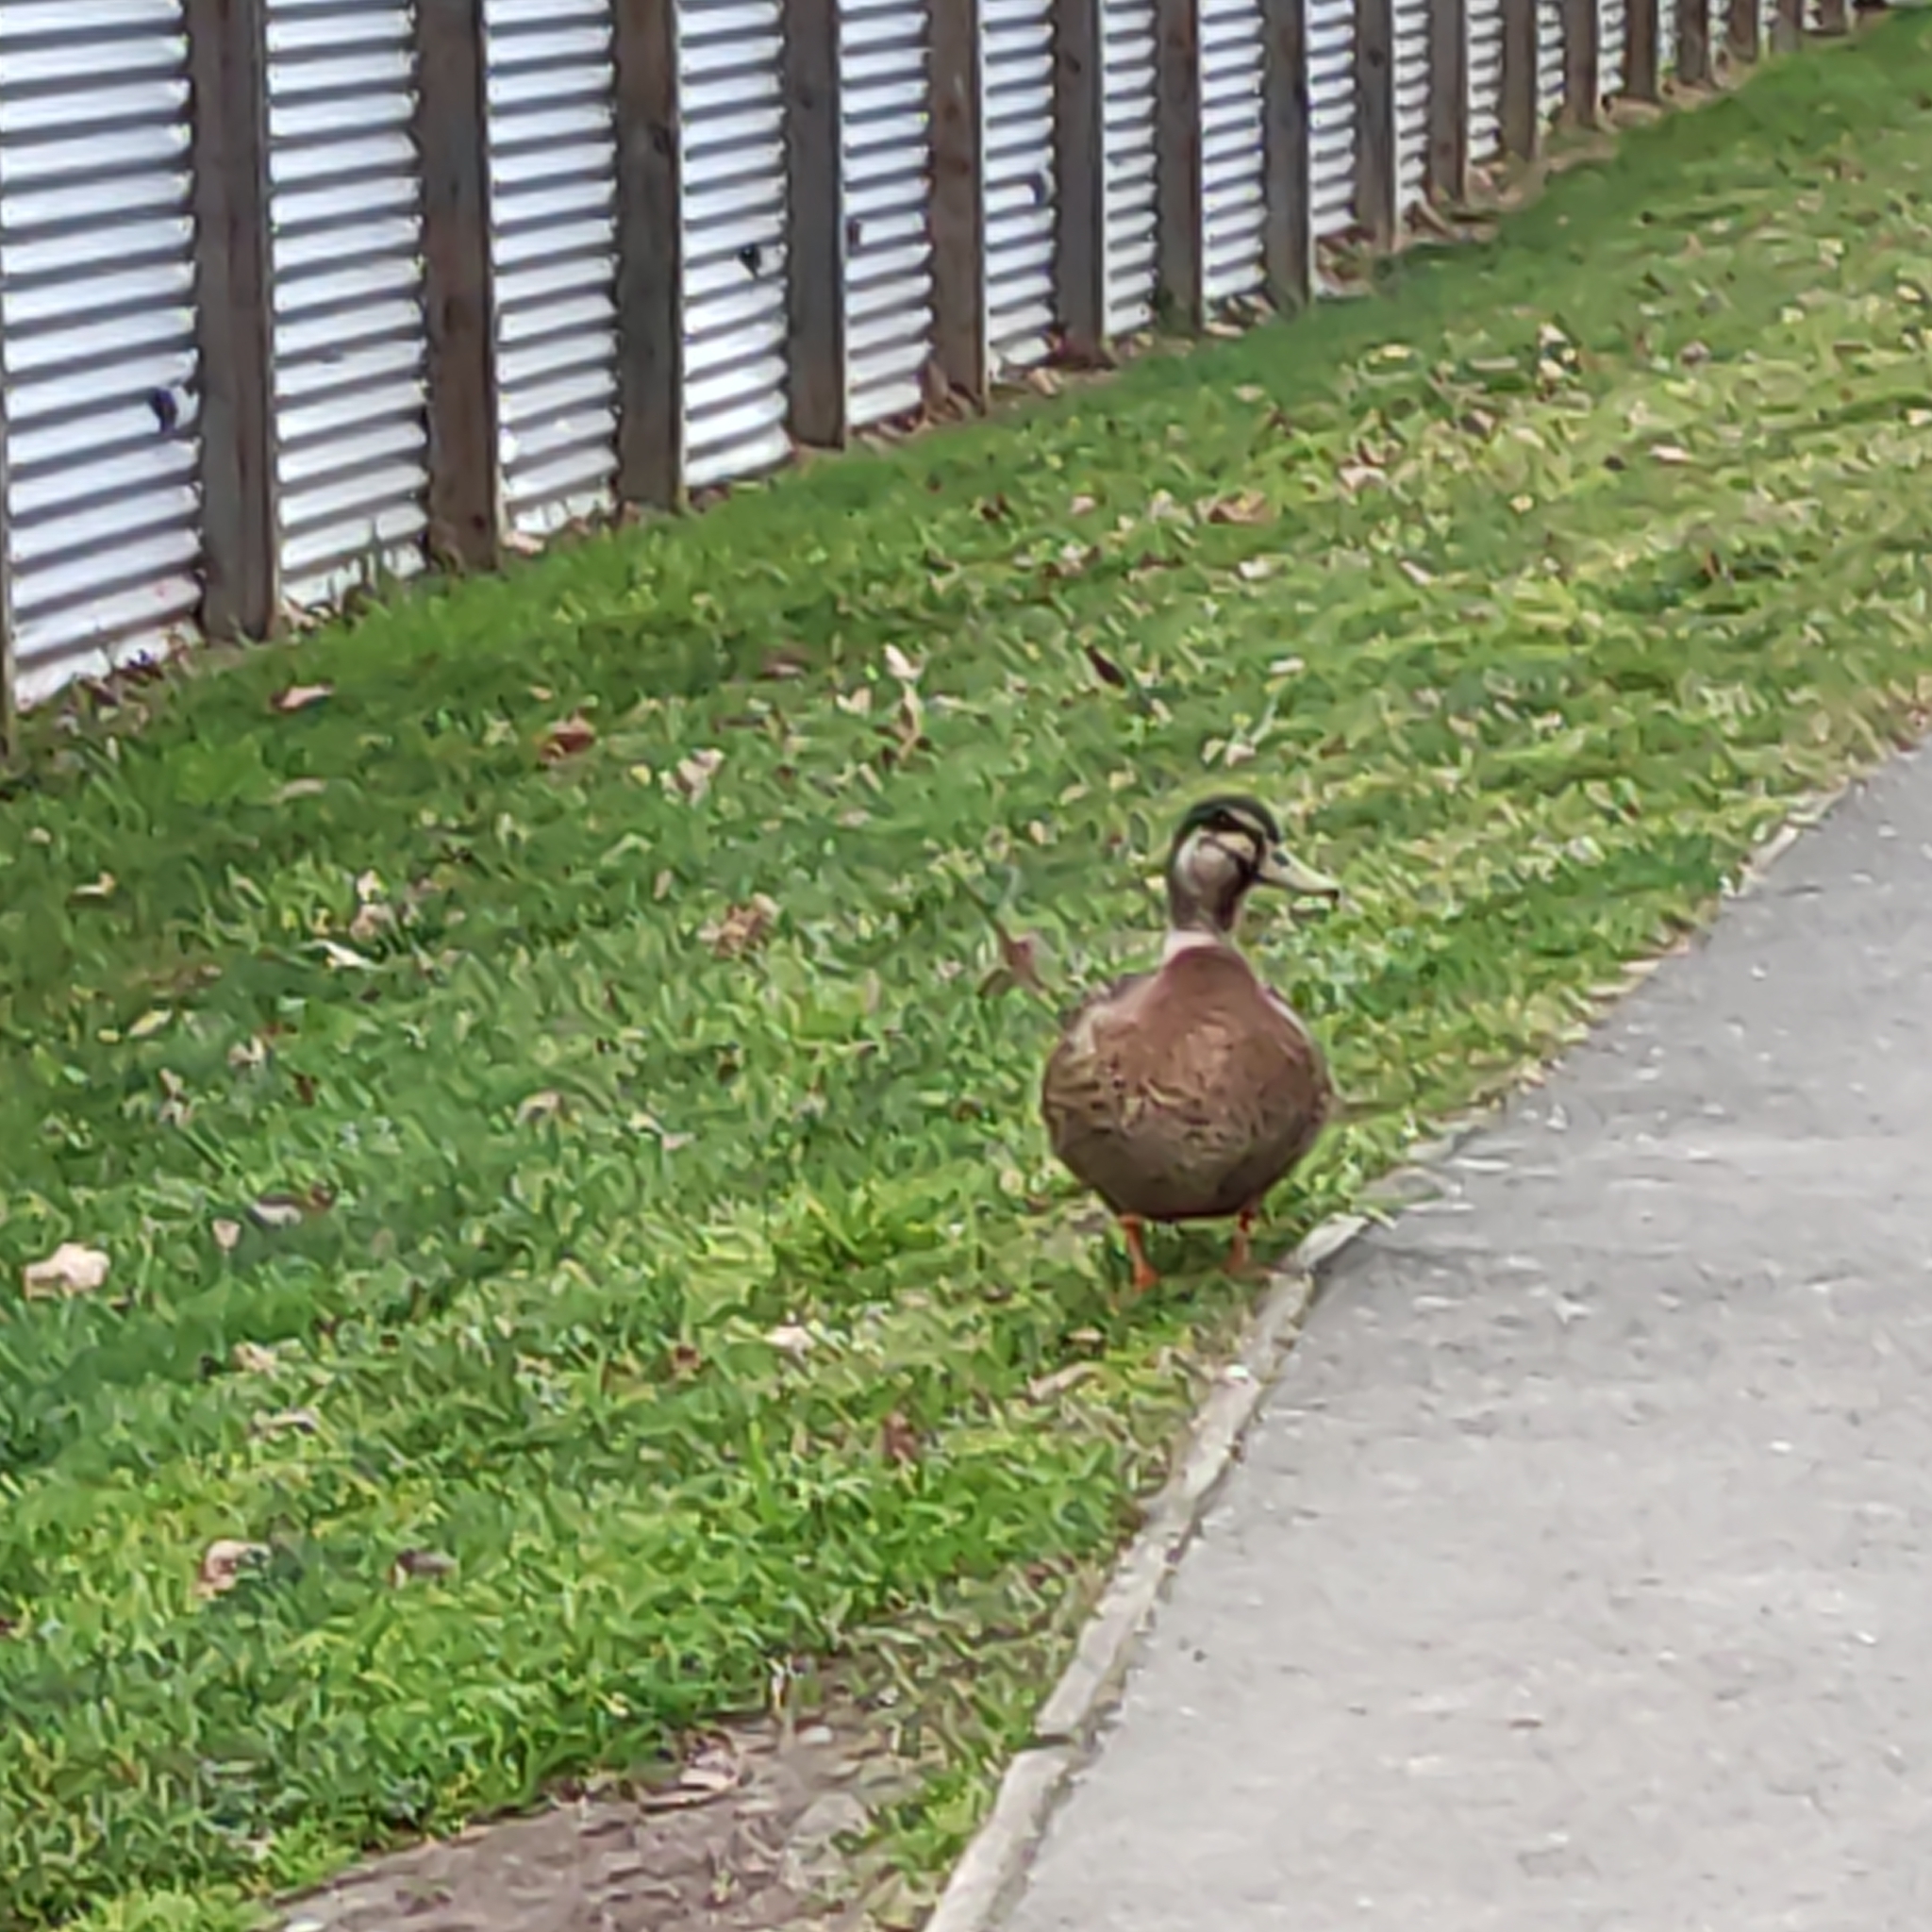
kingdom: Animalia
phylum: Chordata
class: Aves
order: Anseriformes
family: Anatidae
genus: Anas
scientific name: Anas
